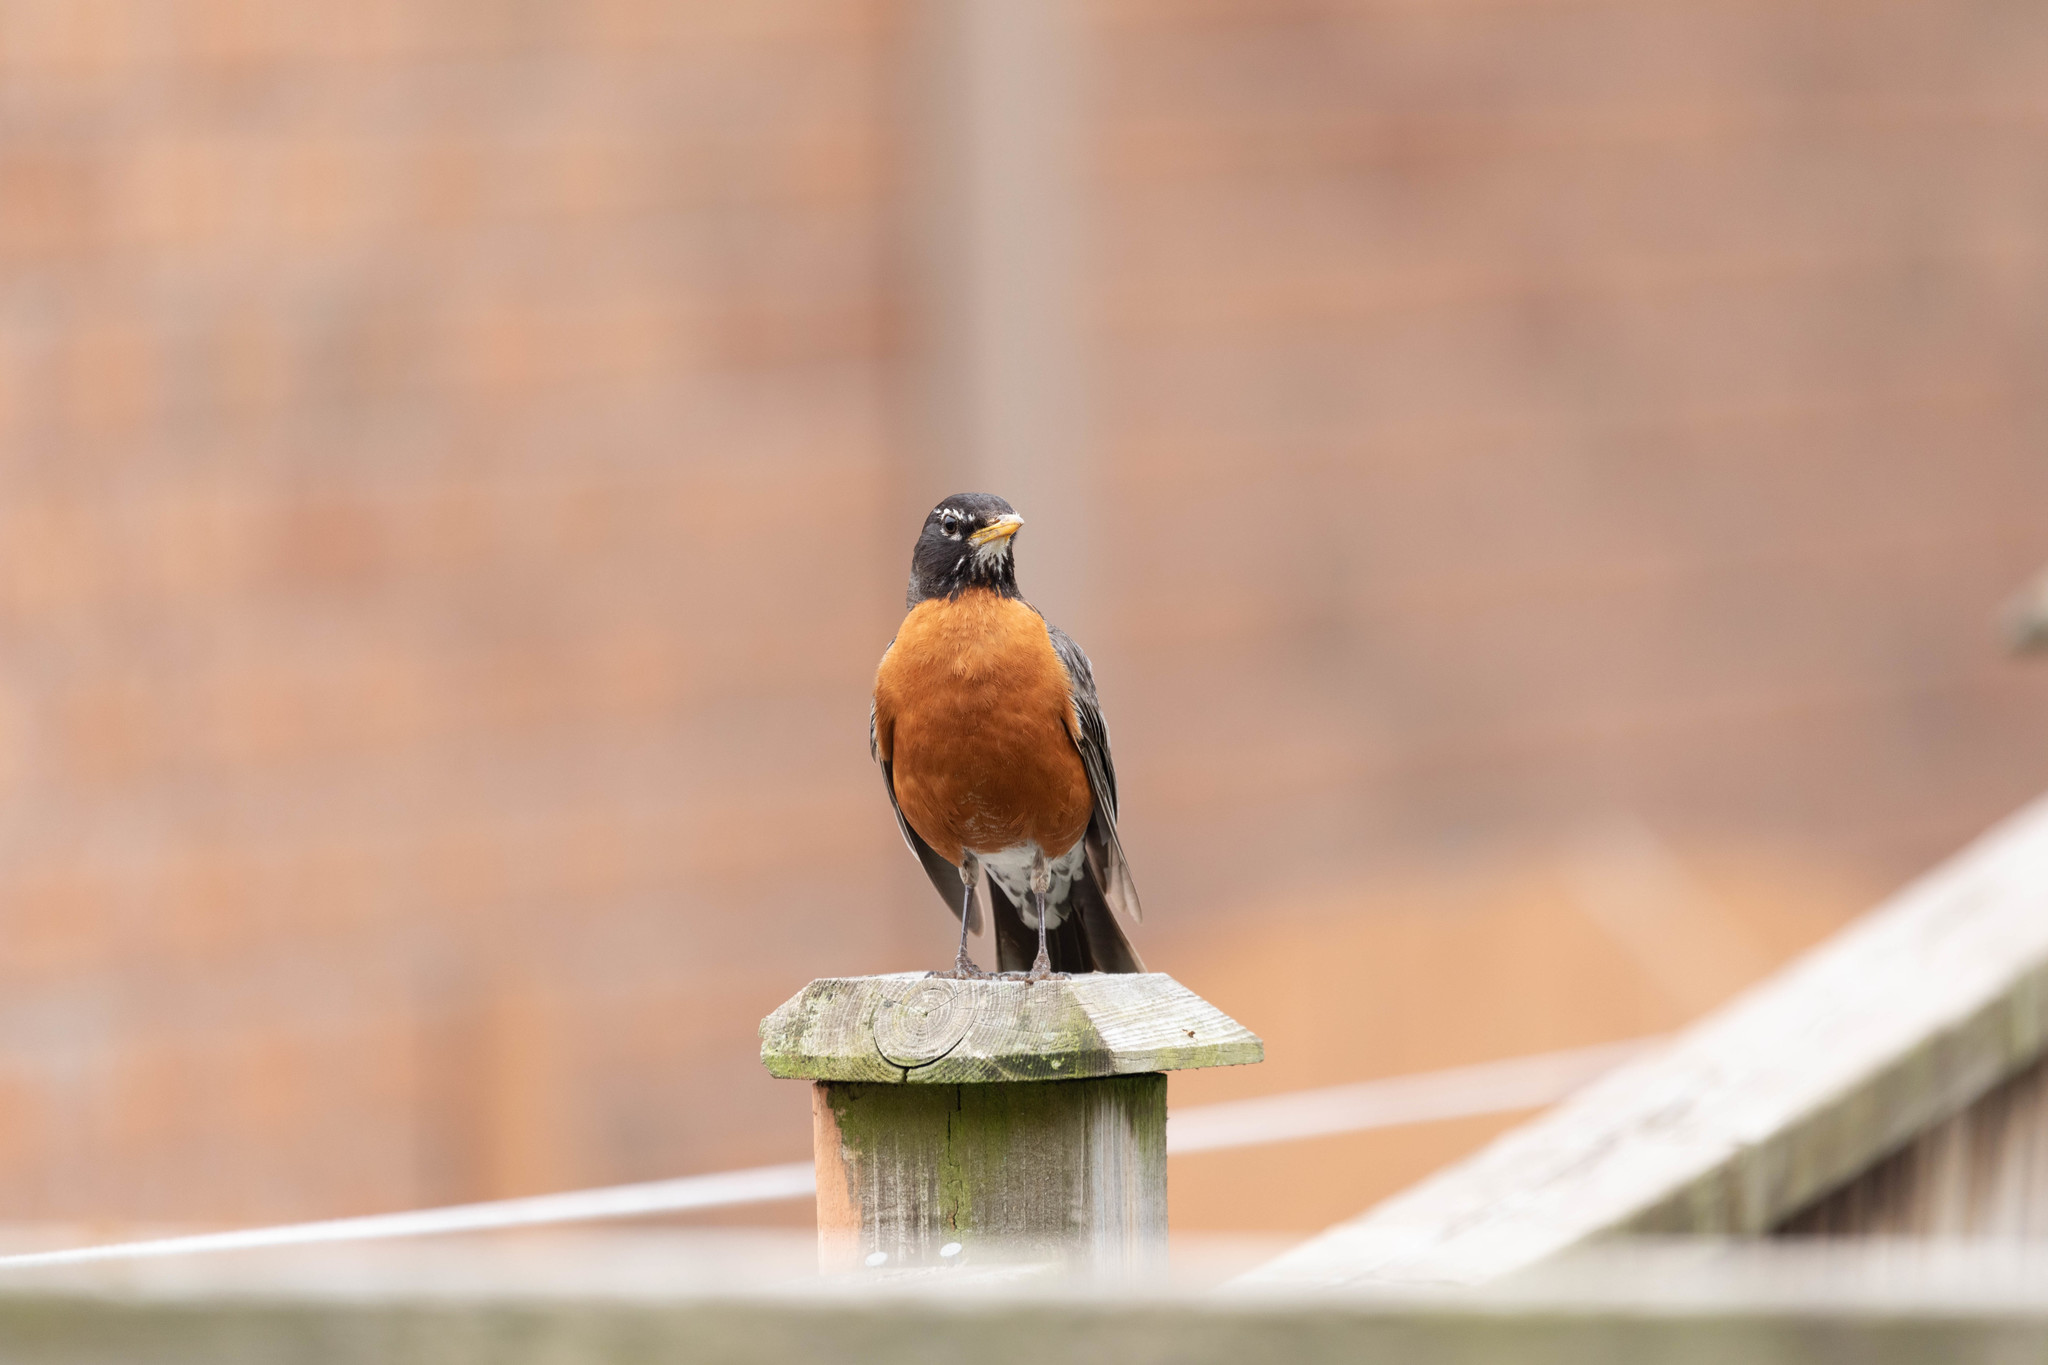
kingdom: Animalia
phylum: Chordata
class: Aves
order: Passeriformes
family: Turdidae
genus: Turdus
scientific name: Turdus migratorius
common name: American robin
